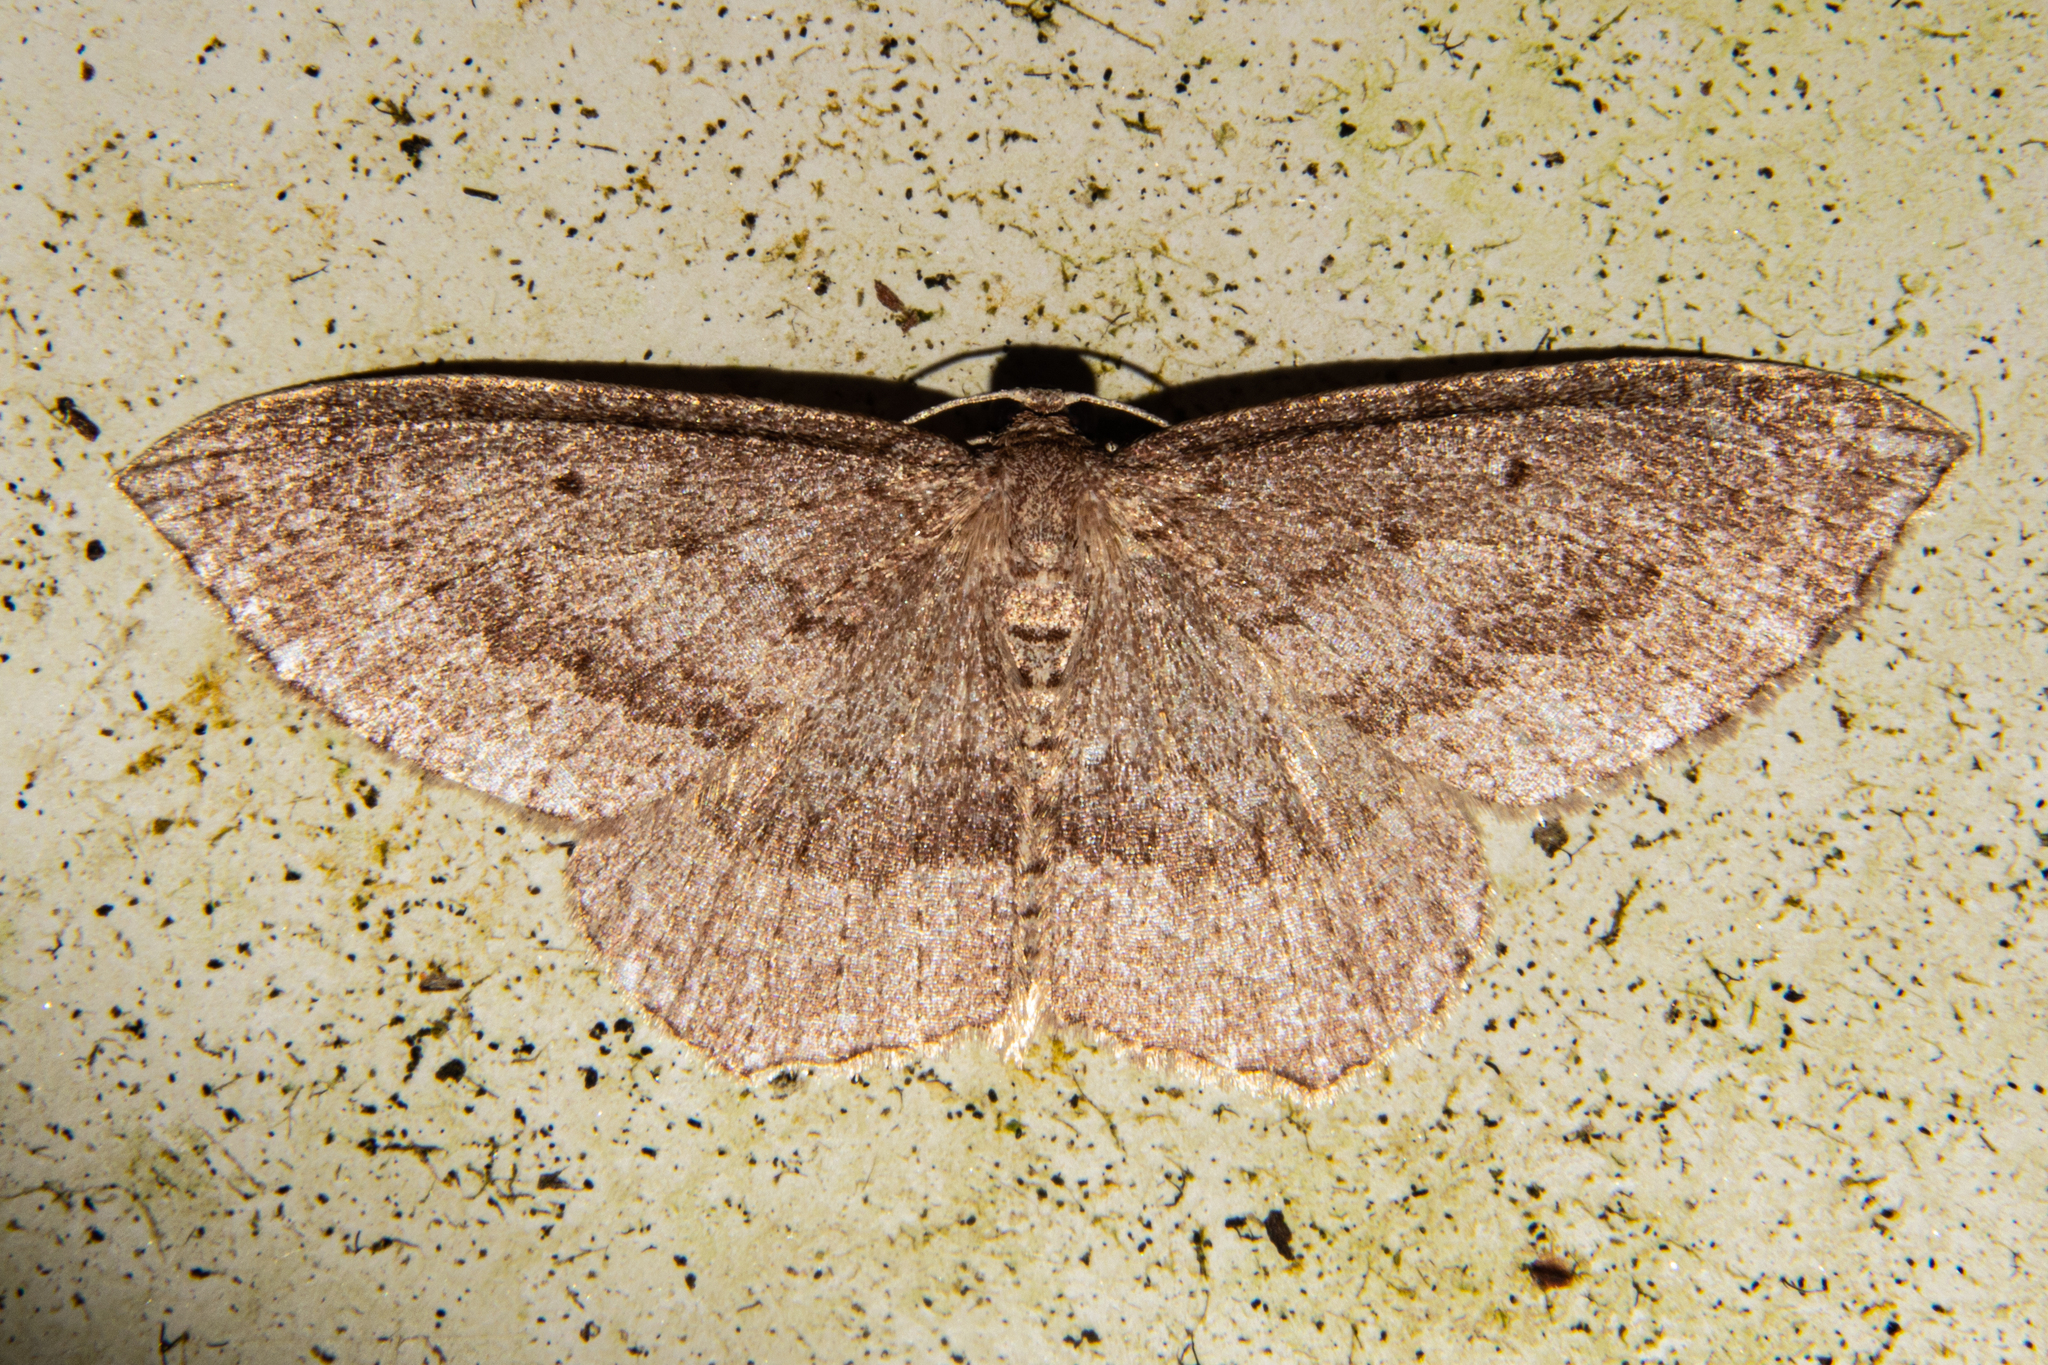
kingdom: Animalia
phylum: Arthropoda
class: Insecta
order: Lepidoptera
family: Geometridae
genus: Poecilasthena
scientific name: Poecilasthena subpurpureata
